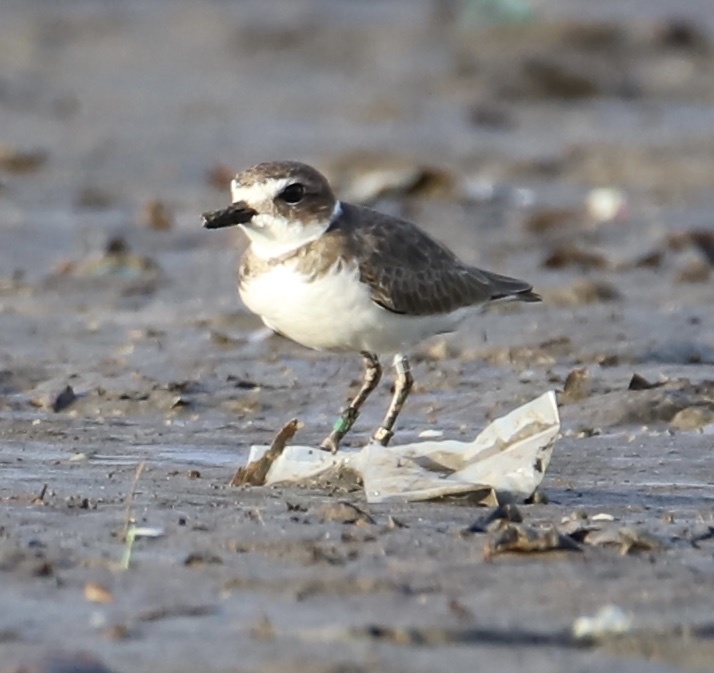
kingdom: Animalia
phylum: Chordata
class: Aves
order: Charadriiformes
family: Charadriidae
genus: Anarhynchus
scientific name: Anarhynchus
